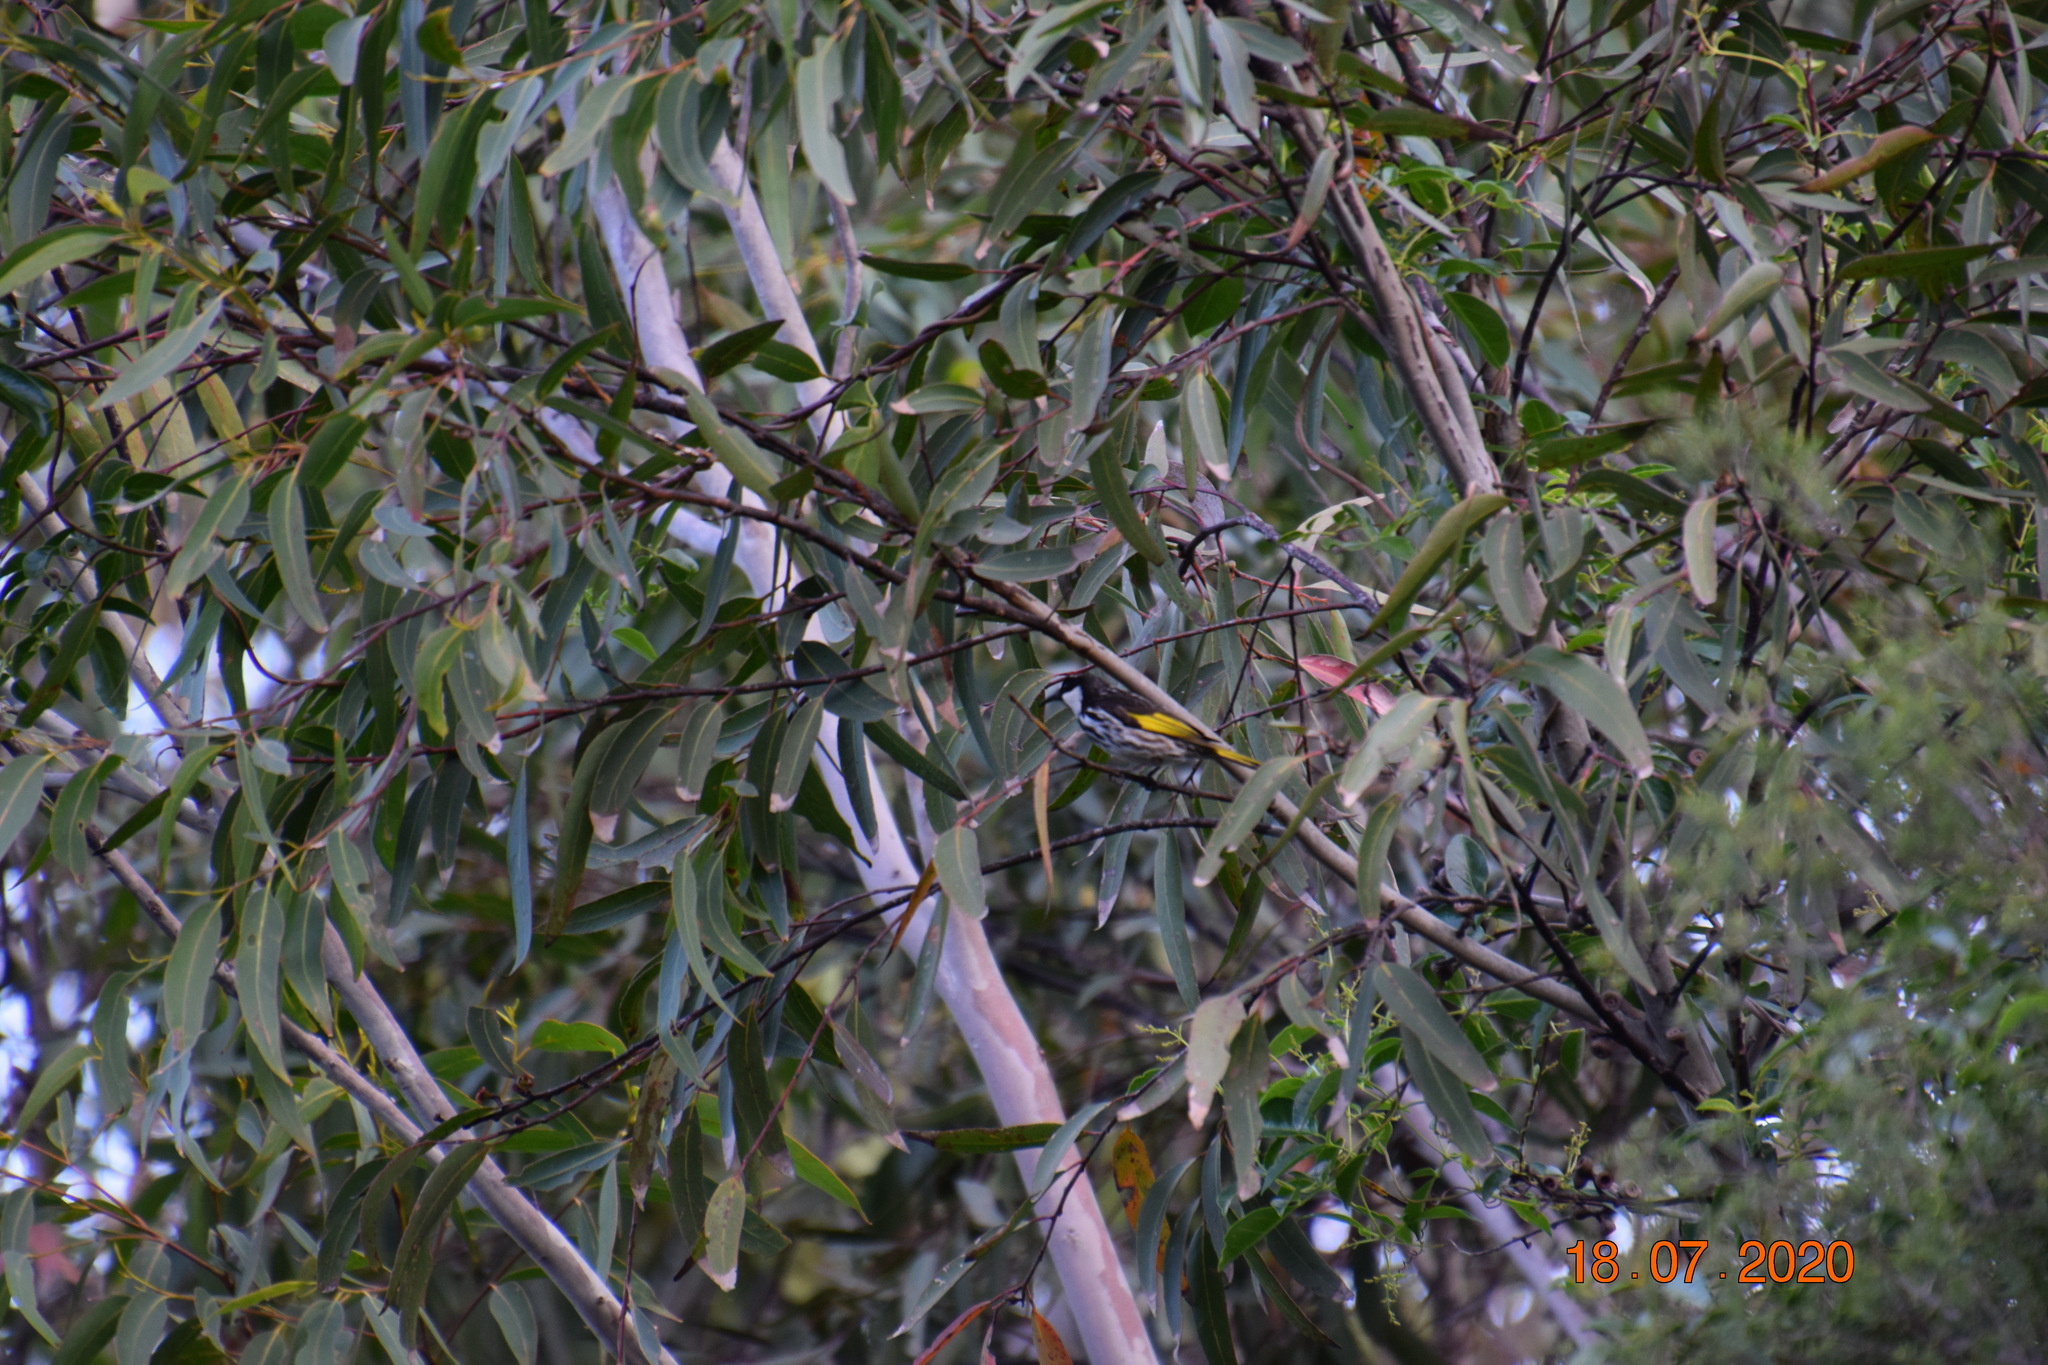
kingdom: Animalia
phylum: Chordata
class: Aves
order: Passeriformes
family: Meliphagidae
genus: Phylidonyris
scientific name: Phylidonyris niger
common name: White-cheeked honeyeater
